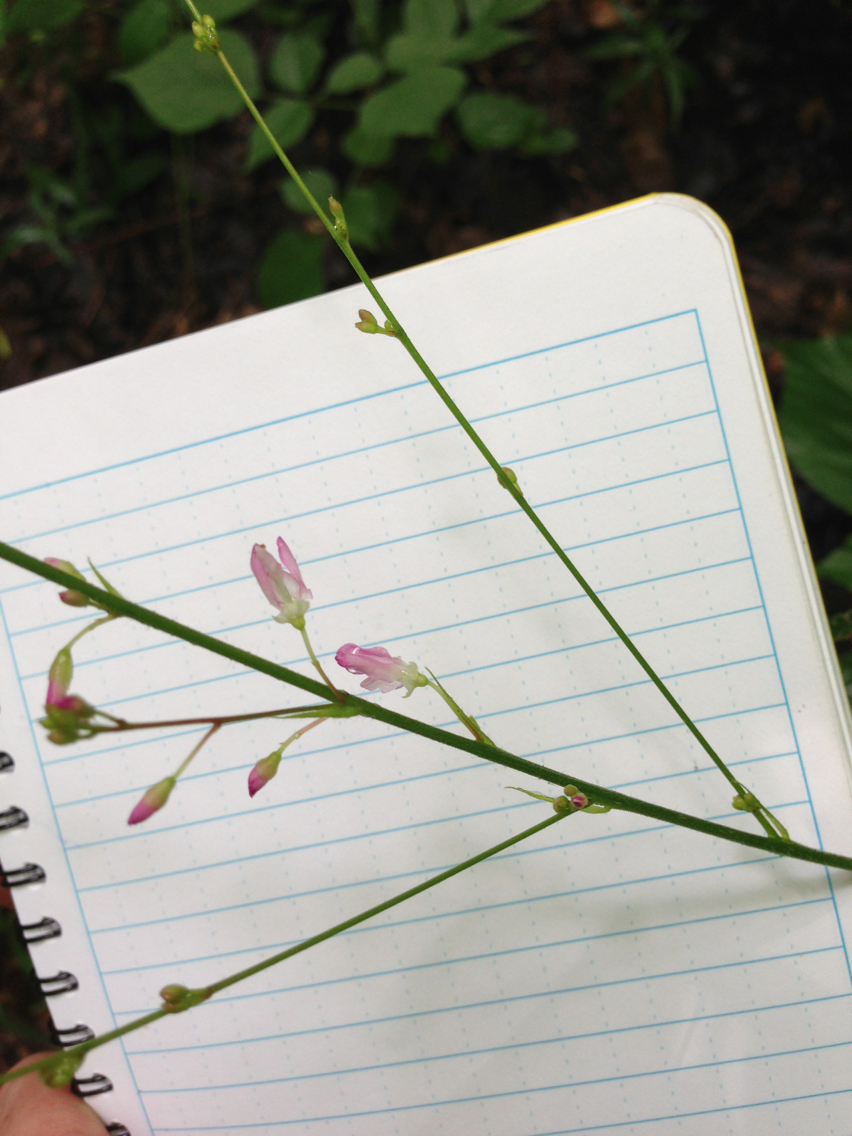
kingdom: Plantae
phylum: Tracheophyta
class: Magnoliopsida
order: Fabales
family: Fabaceae
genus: Hylodesmum
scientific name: Hylodesmum glutinosum
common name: Clustered-leaved tick-trefoil
